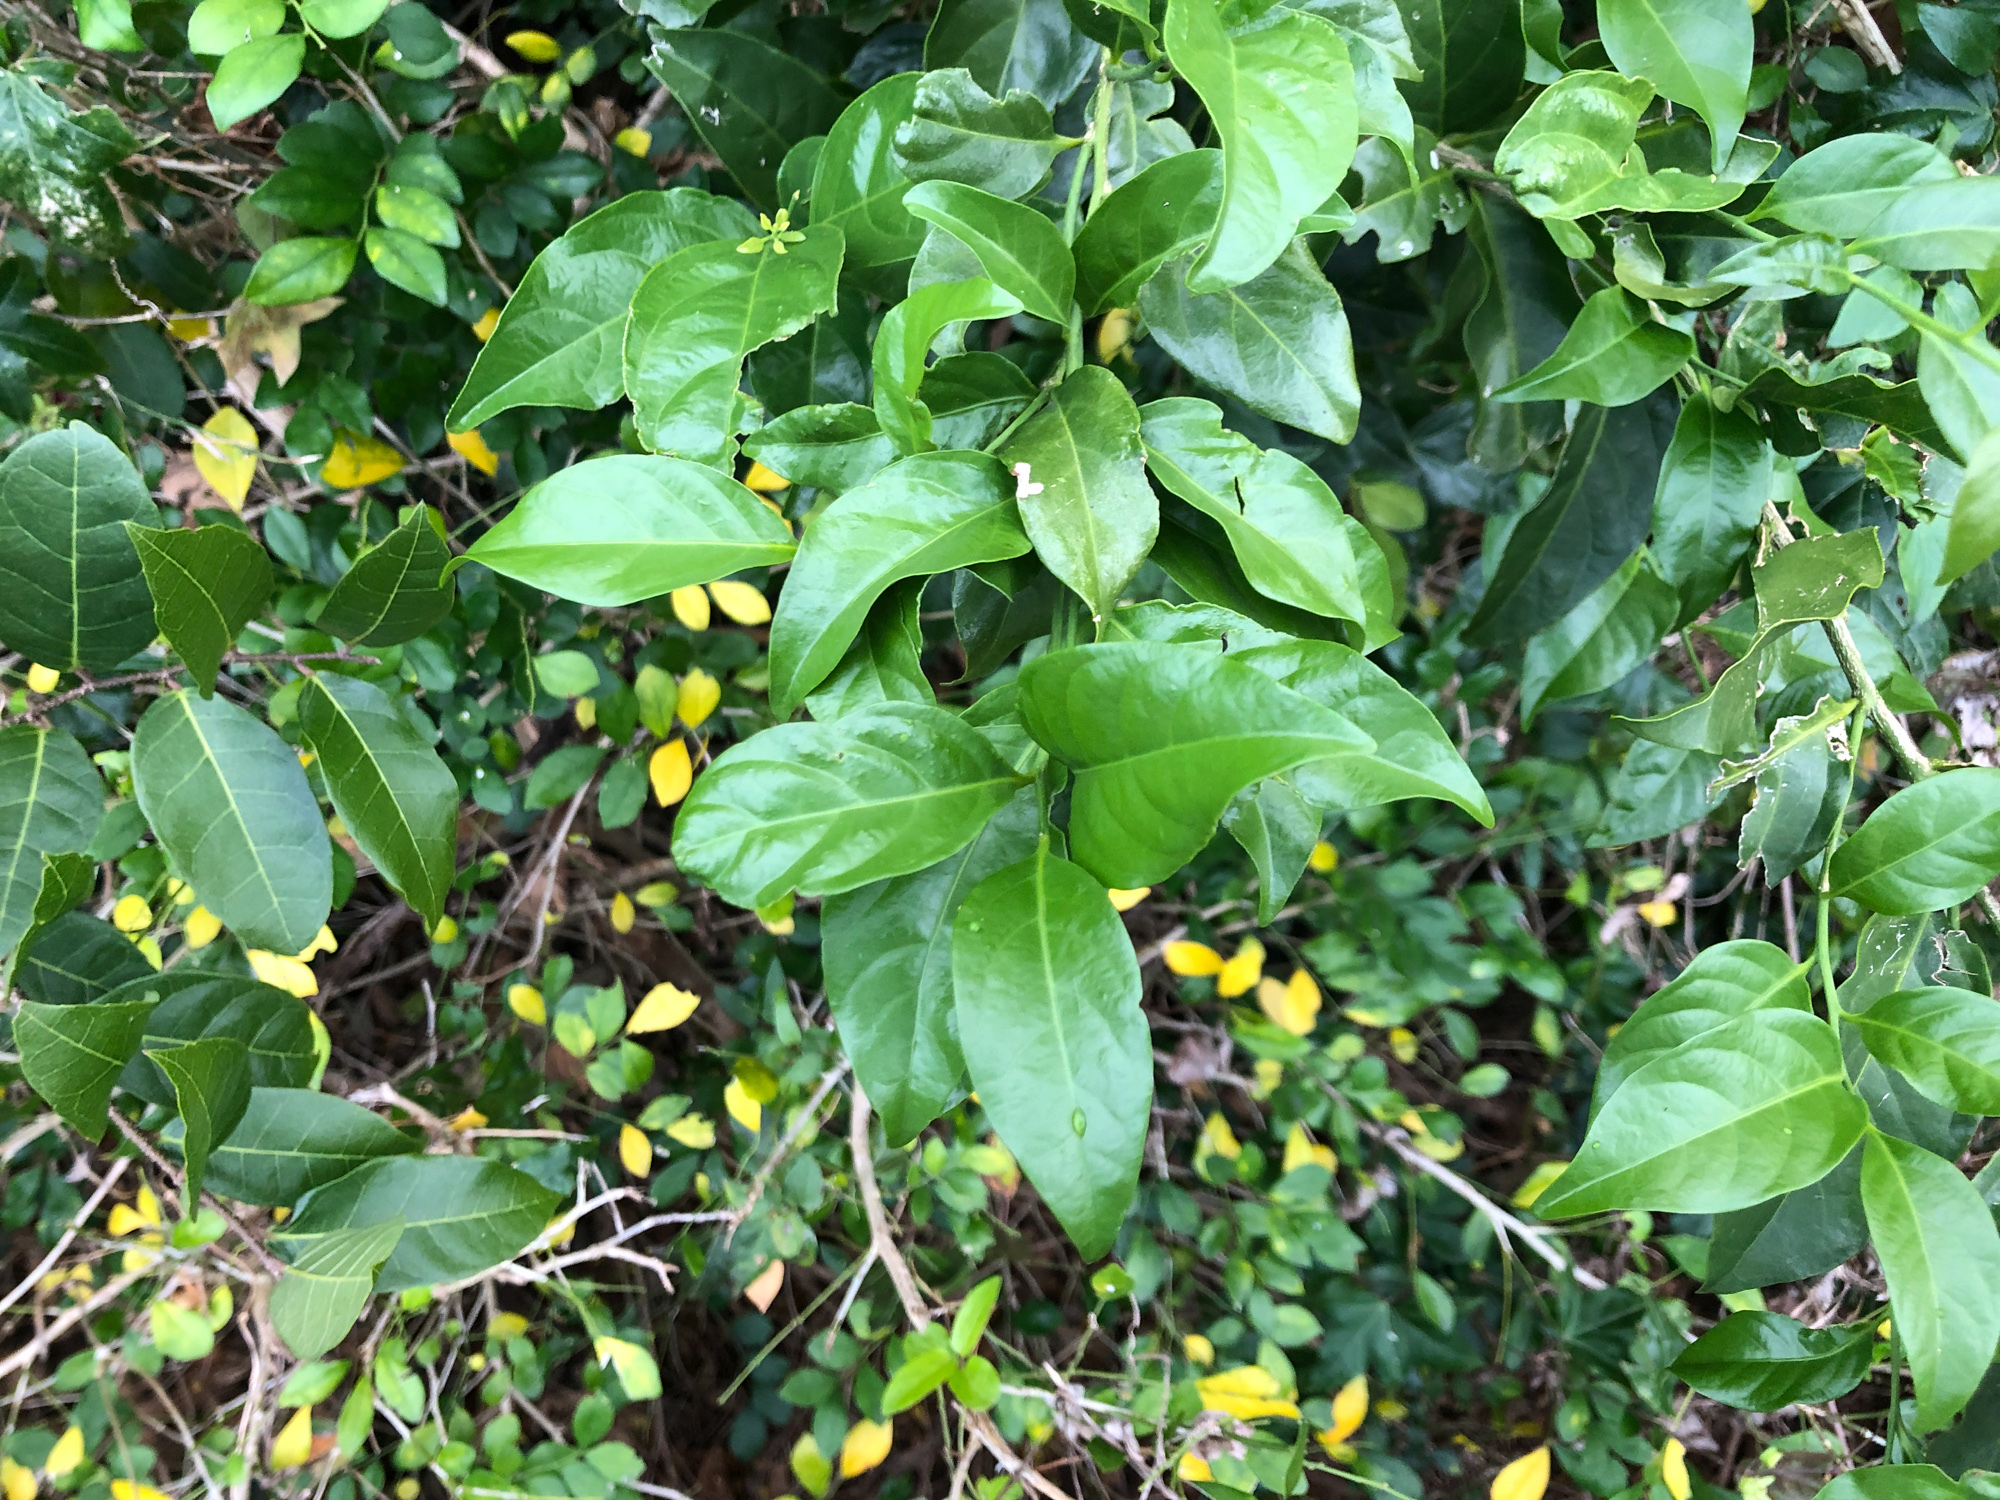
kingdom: Plantae
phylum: Tracheophyta
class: Magnoliopsida
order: Santalales
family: Opiliaceae
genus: Champereia
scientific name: Champereia manillana
